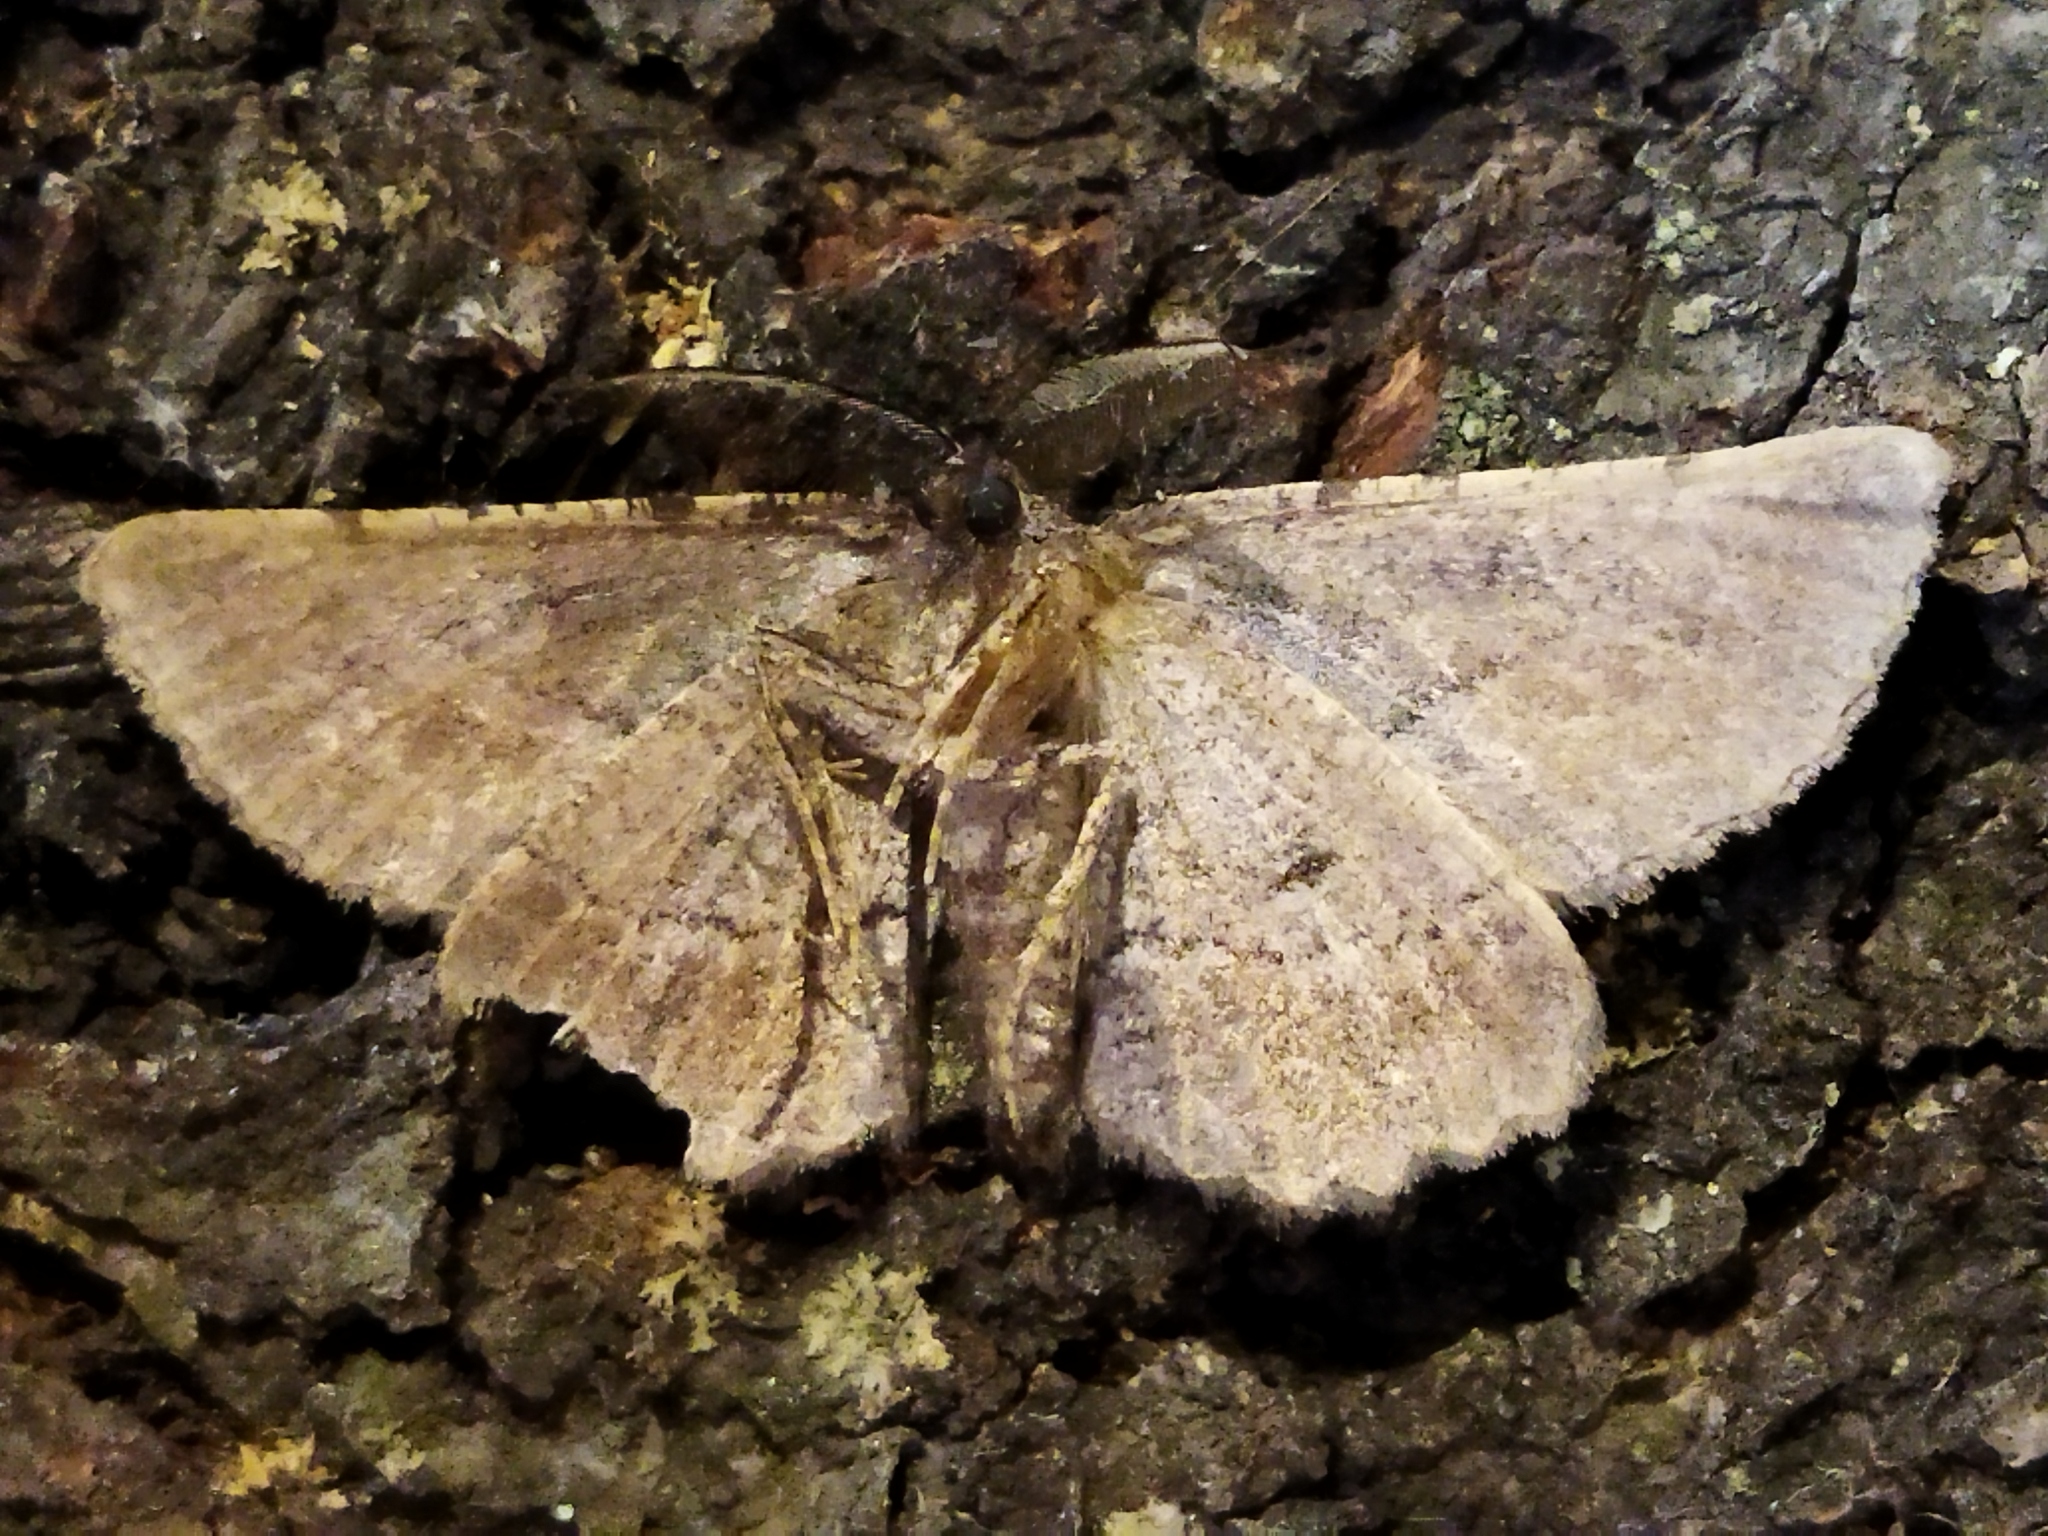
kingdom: Animalia
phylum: Arthropoda
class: Insecta
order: Lepidoptera
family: Geometridae
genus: Nychiodes
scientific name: Nychiodes waltheri
